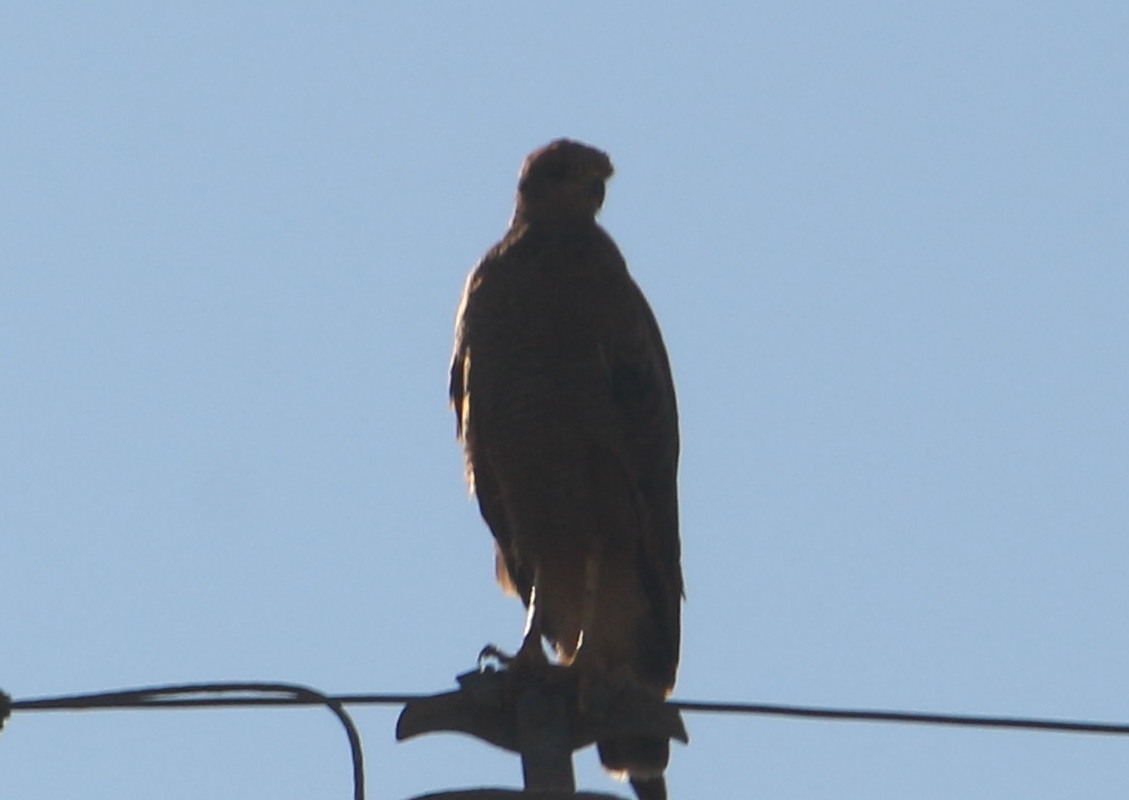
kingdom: Animalia
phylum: Chordata
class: Aves
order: Accipitriformes
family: Accipitridae
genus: Buteogallus
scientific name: Buteogallus meridionalis
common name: Savanna hawk
